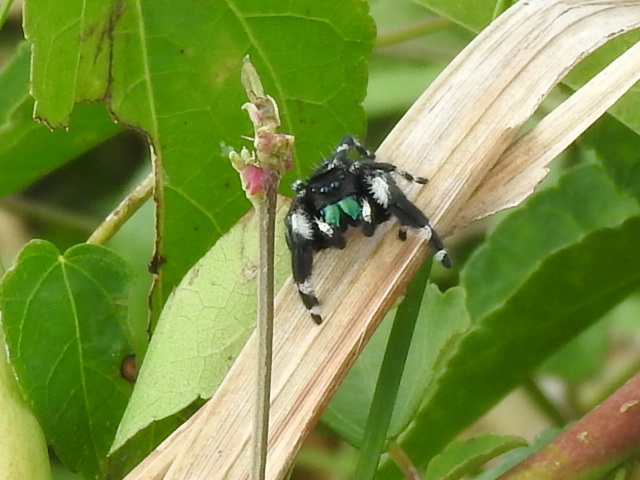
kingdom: Animalia
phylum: Arthropoda
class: Arachnida
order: Araneae
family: Salticidae
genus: Phidippus
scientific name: Phidippus audax
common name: Bold jumper
